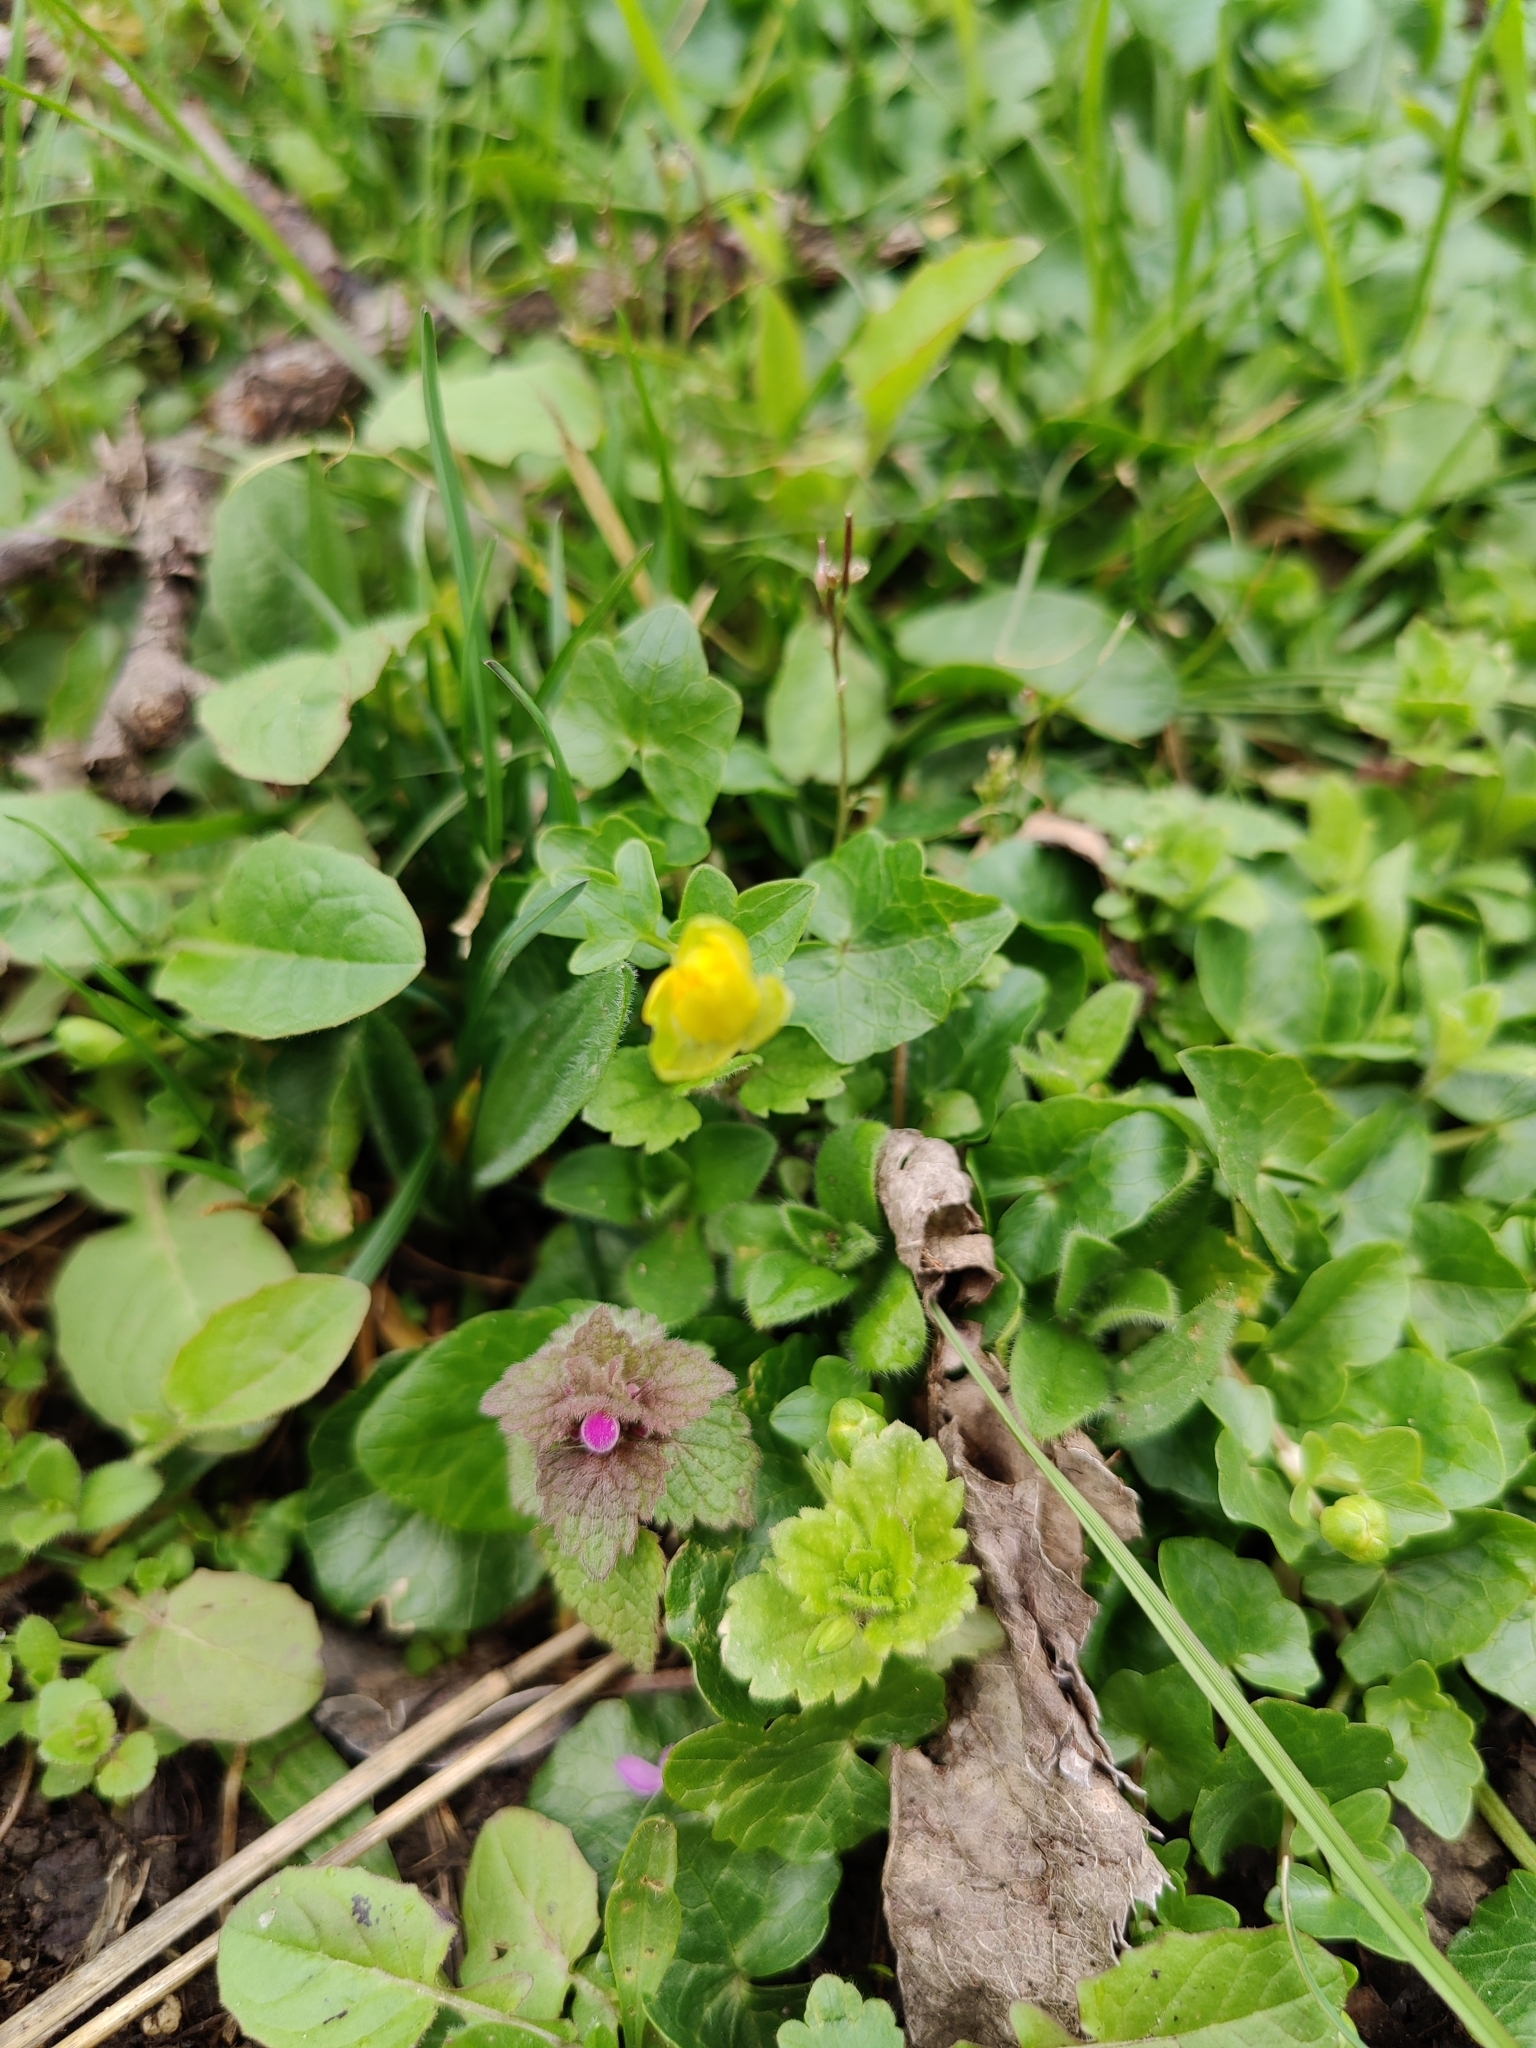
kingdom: Plantae
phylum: Tracheophyta
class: Magnoliopsida
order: Ranunculales
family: Ranunculaceae
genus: Ficaria
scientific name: Ficaria verna
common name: Lesser celandine
